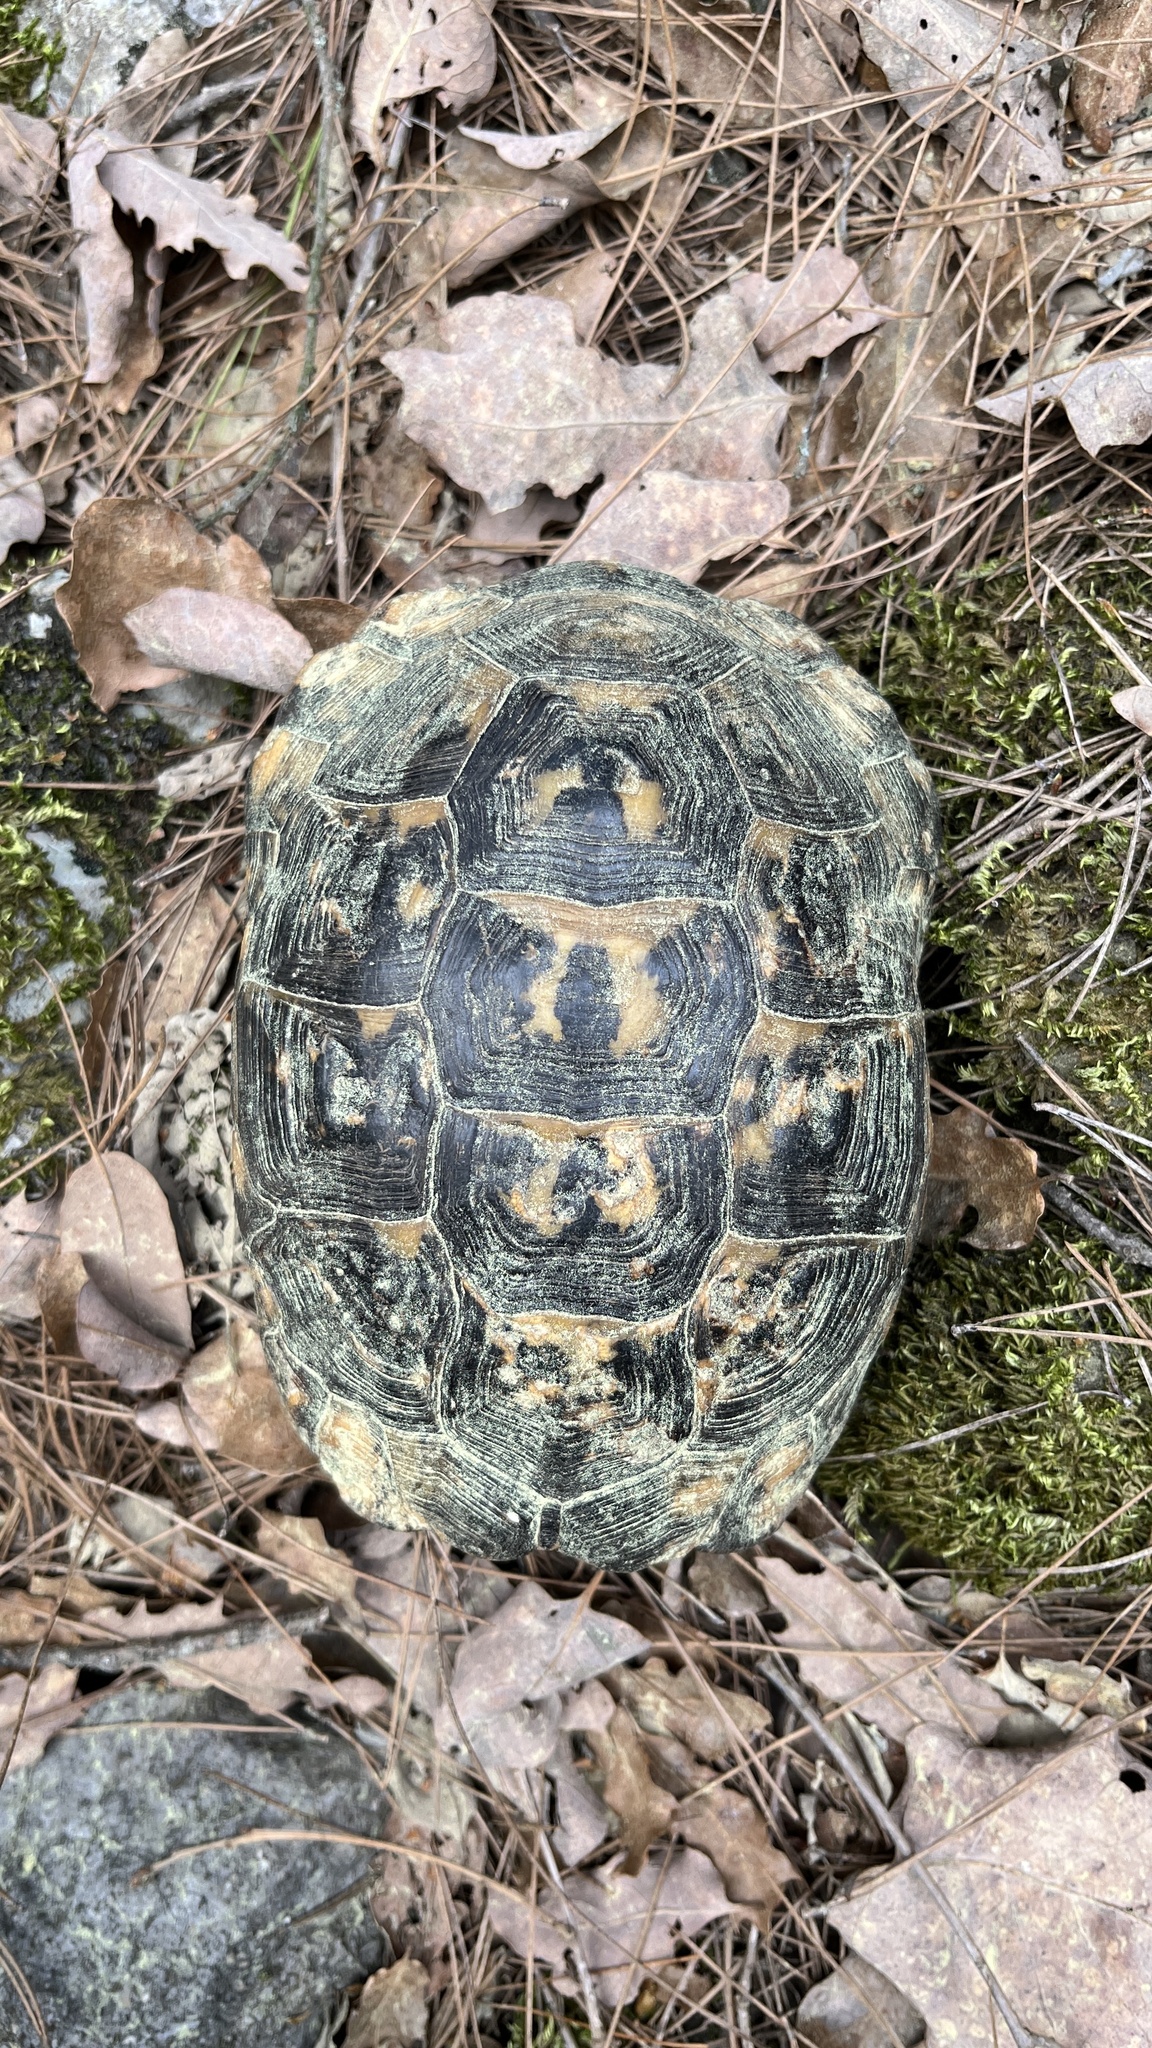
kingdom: Animalia
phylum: Chordata
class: Testudines
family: Testudinidae
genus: Testudo
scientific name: Testudo graeca
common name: Common tortoise
